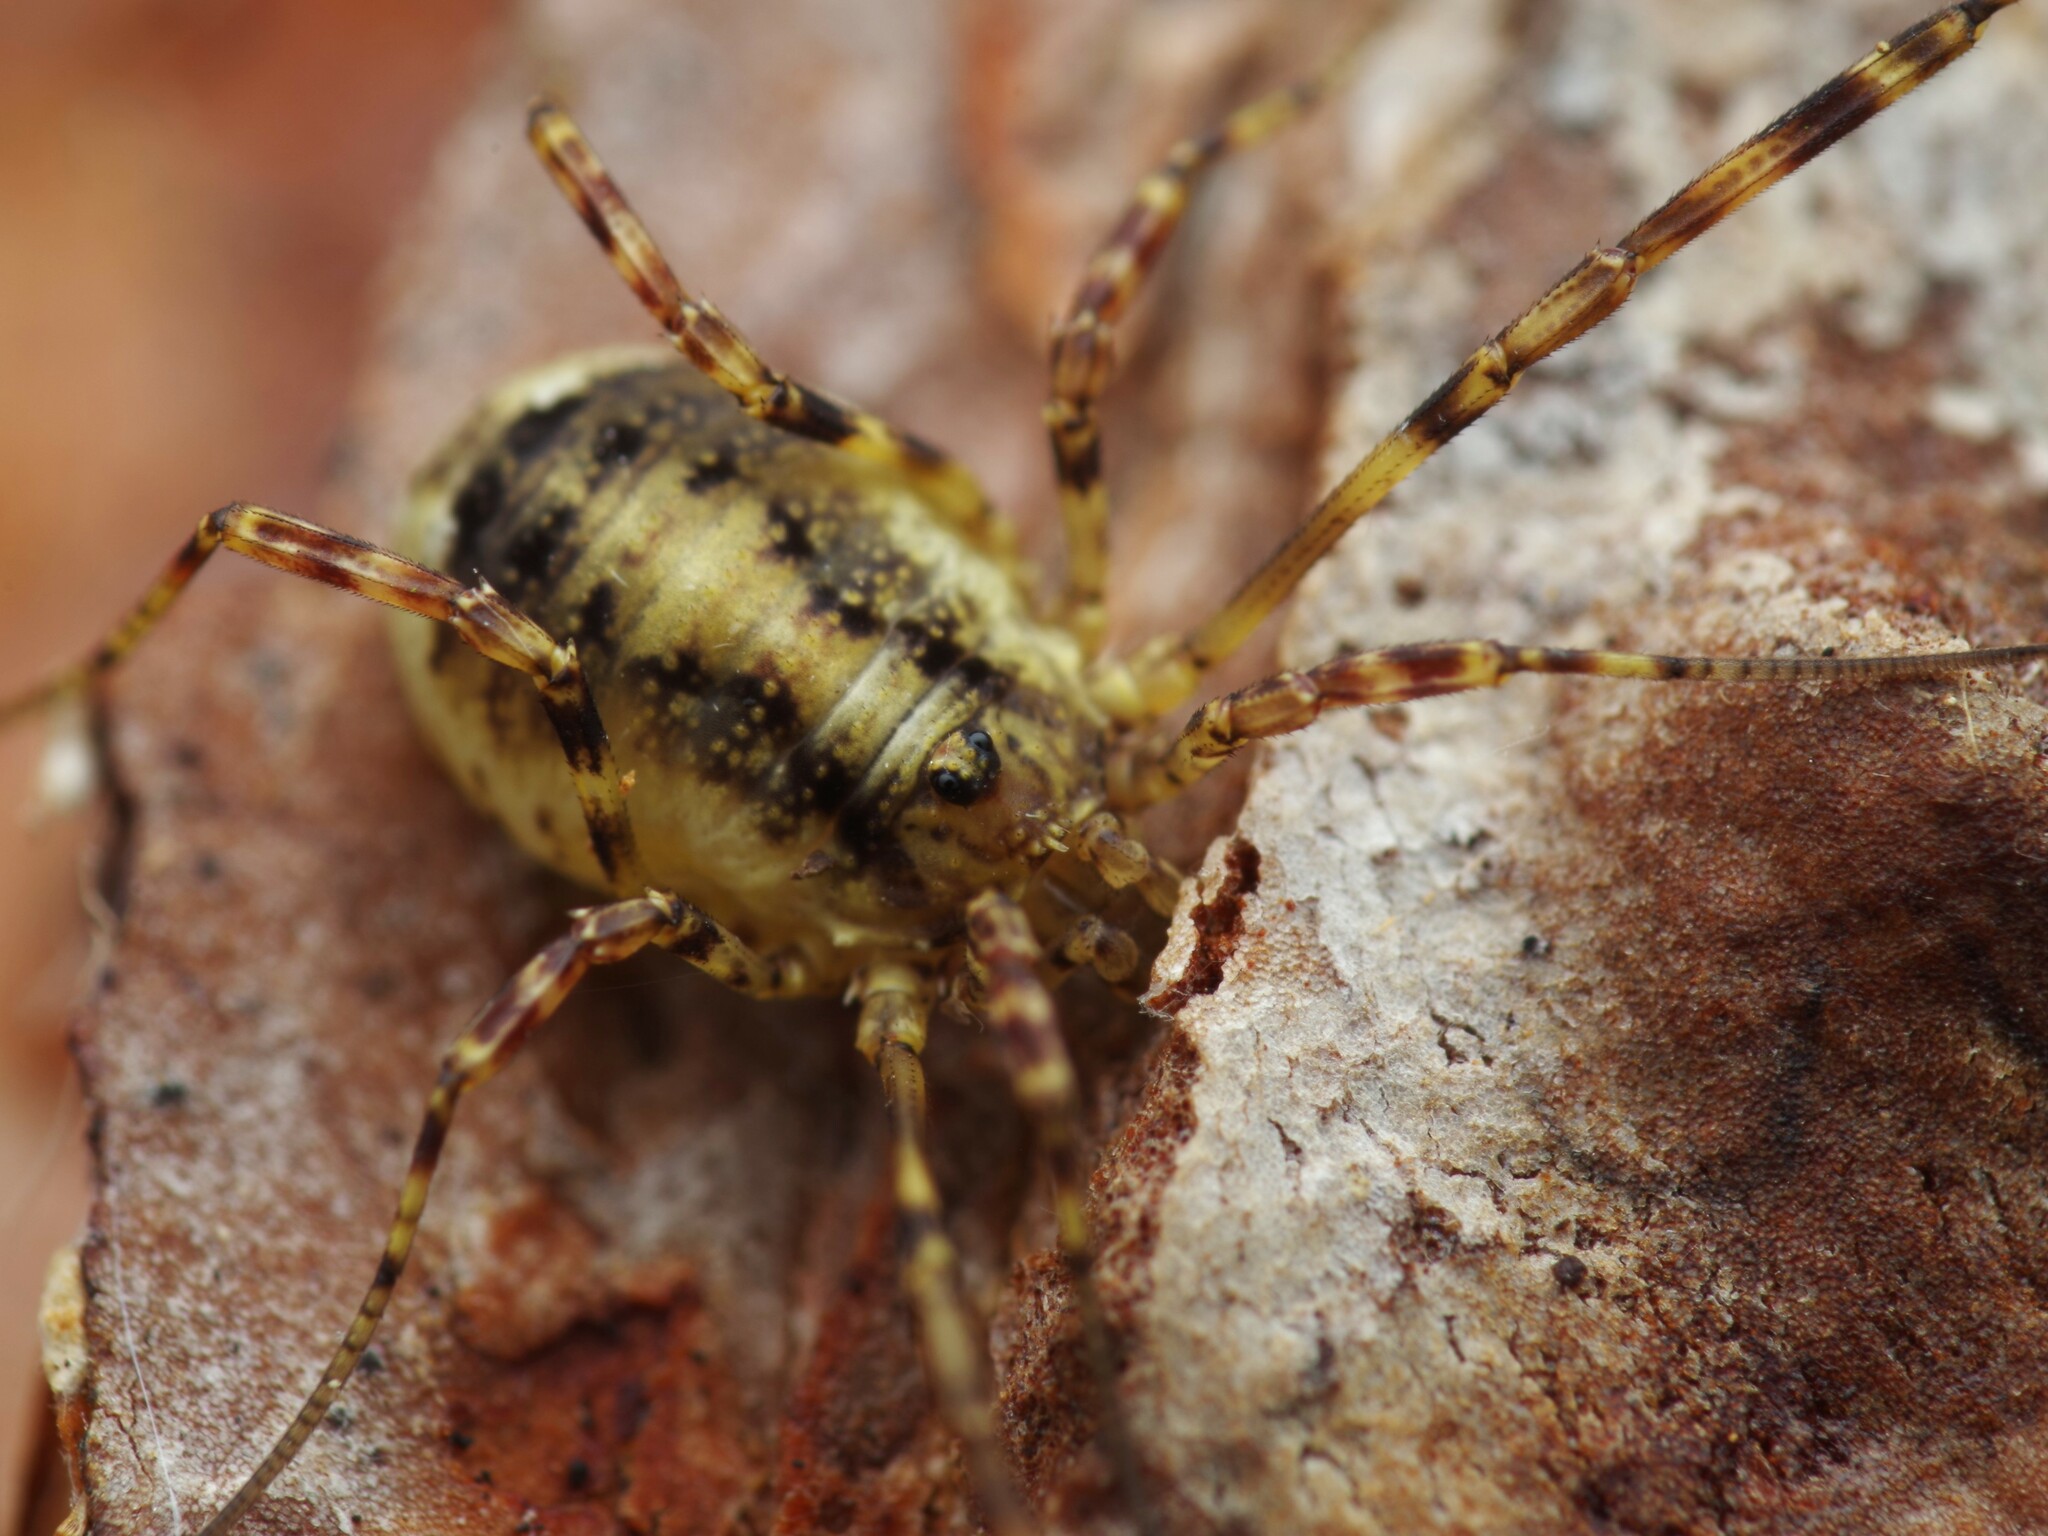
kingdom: Animalia
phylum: Arthropoda
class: Arachnida
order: Opiliones
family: Phalangiidae
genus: Oligolophus
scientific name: Oligolophus hansenii
